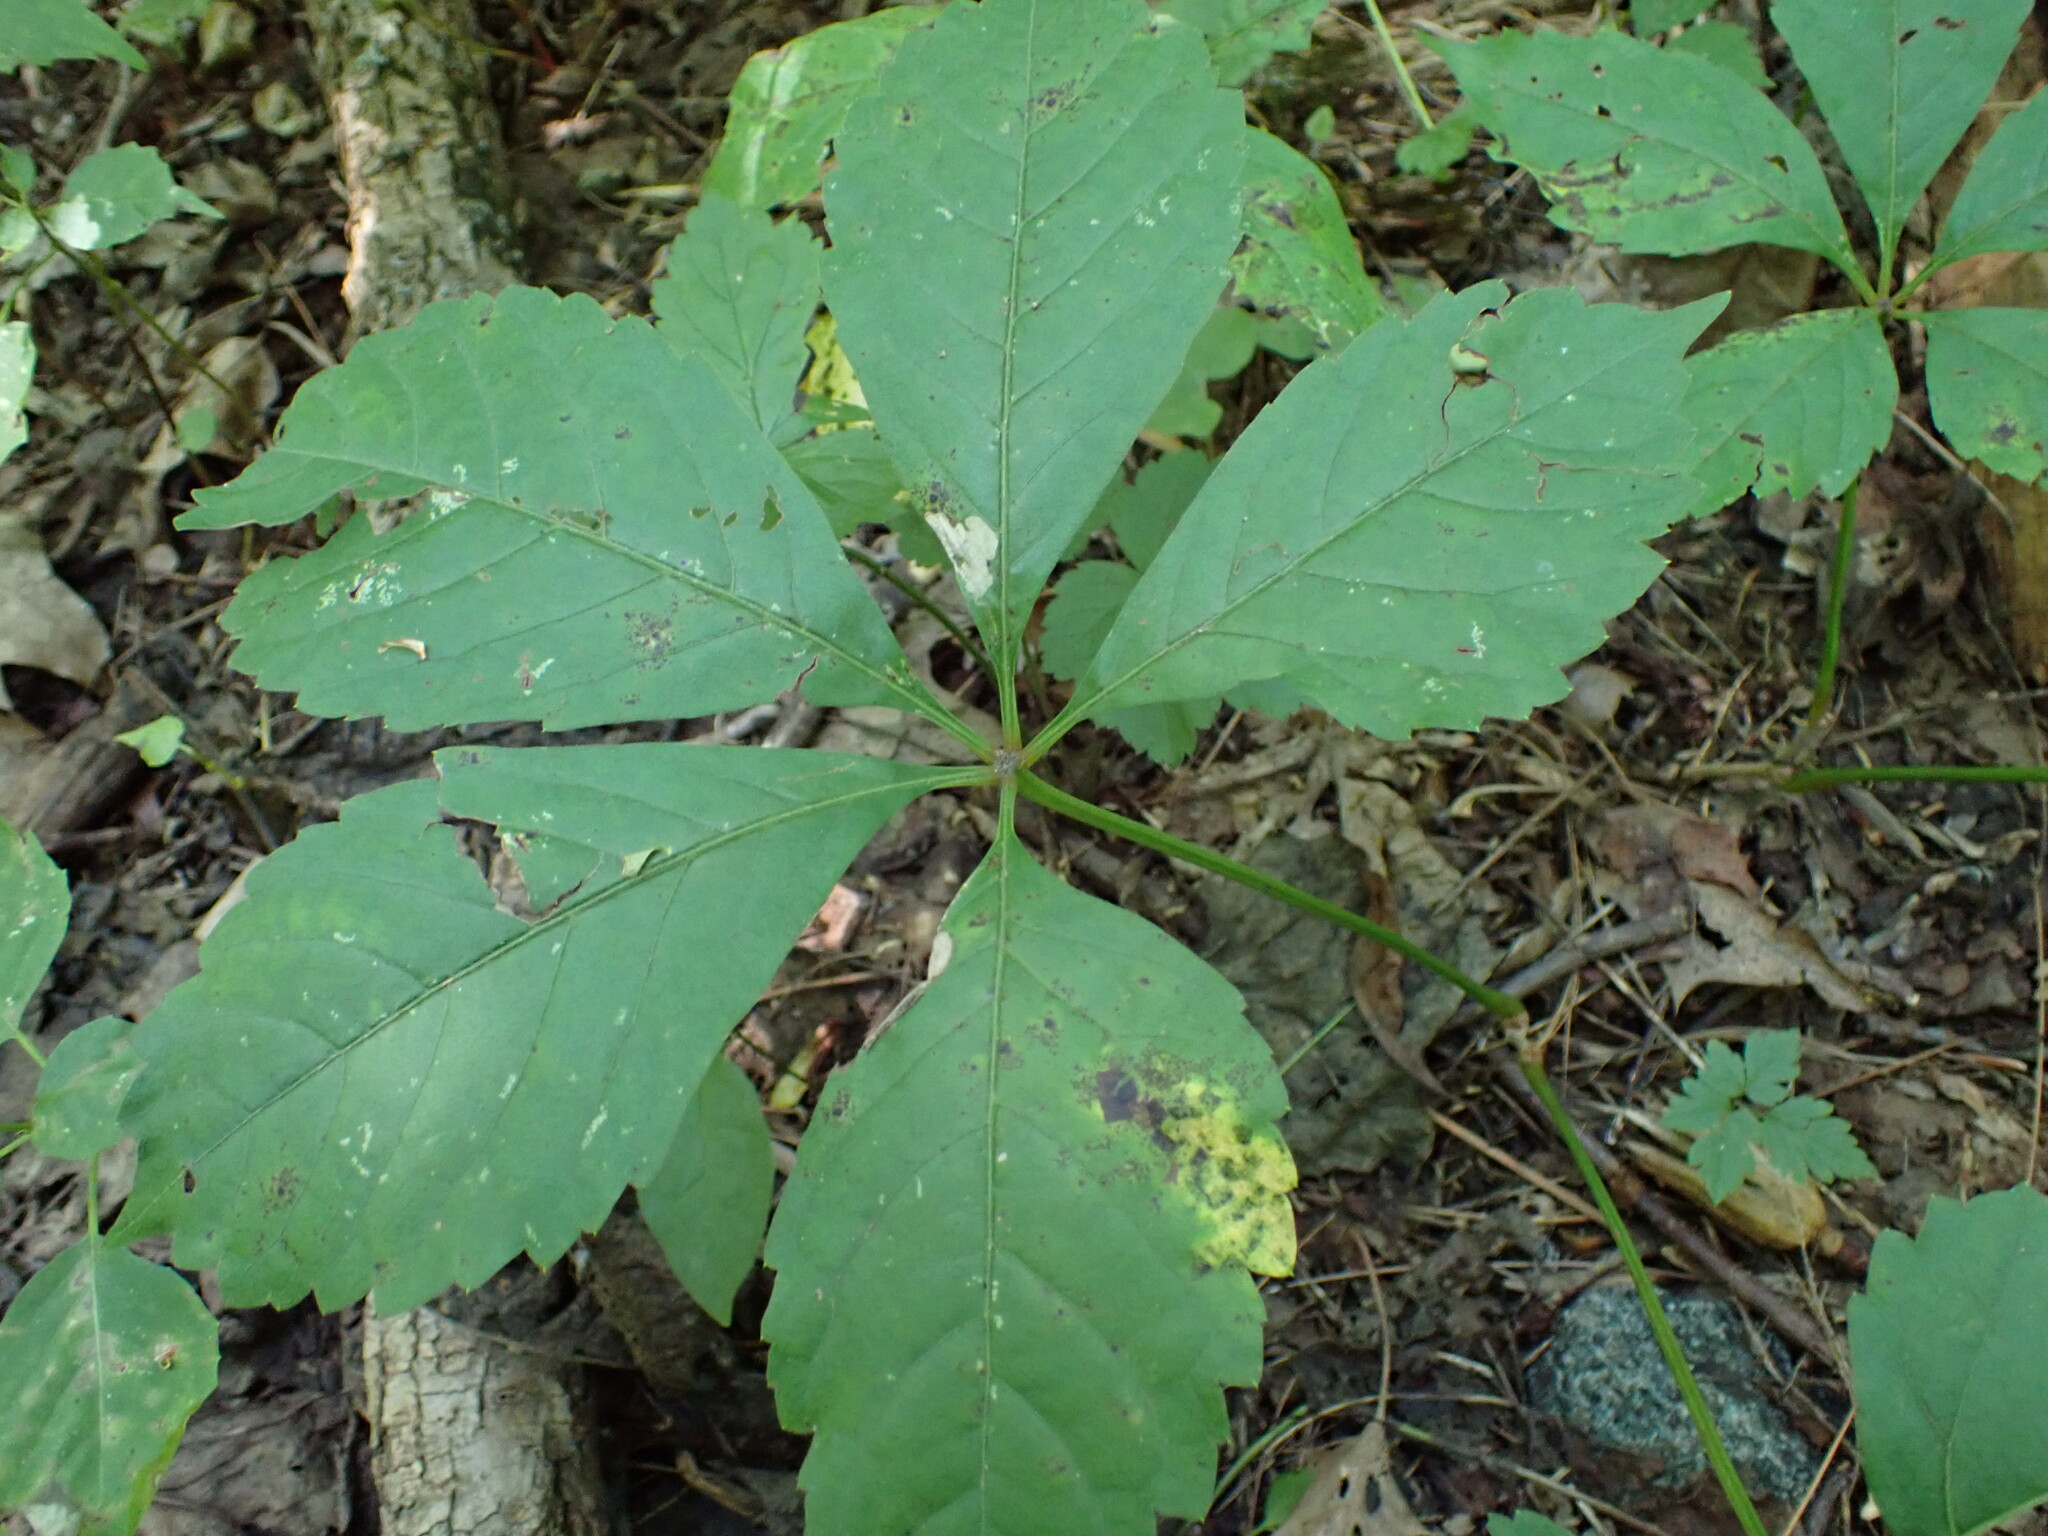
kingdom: Plantae
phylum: Tracheophyta
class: Magnoliopsida
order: Vitales
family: Vitaceae
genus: Parthenocissus
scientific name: Parthenocissus quinquefolia
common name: Virginia-creeper
